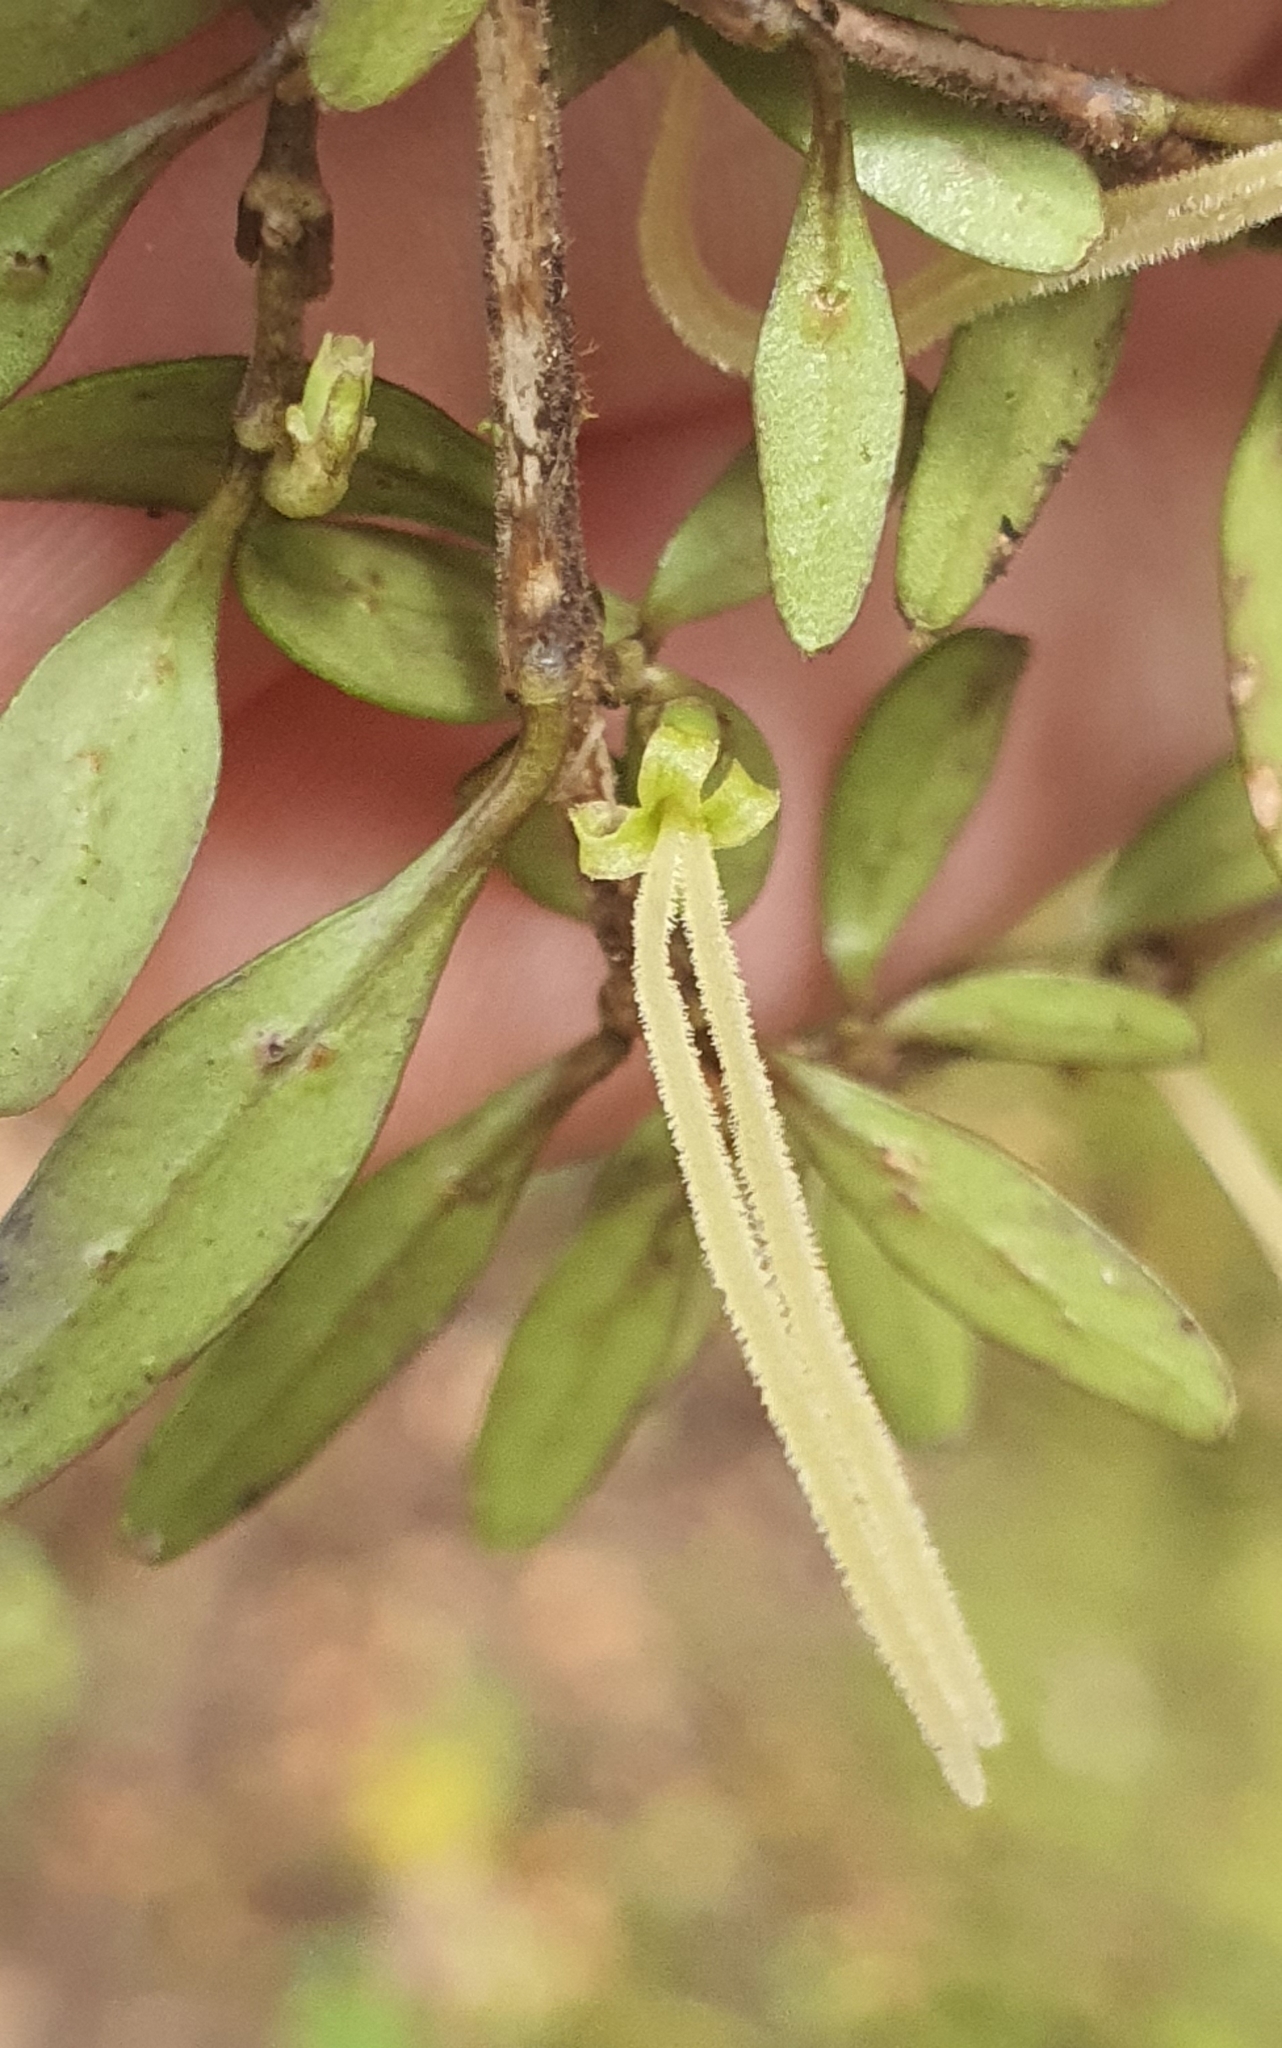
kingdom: Plantae
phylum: Tracheophyta
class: Magnoliopsida
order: Gentianales
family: Rubiaceae
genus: Coprosma
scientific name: Coprosma colensoi
